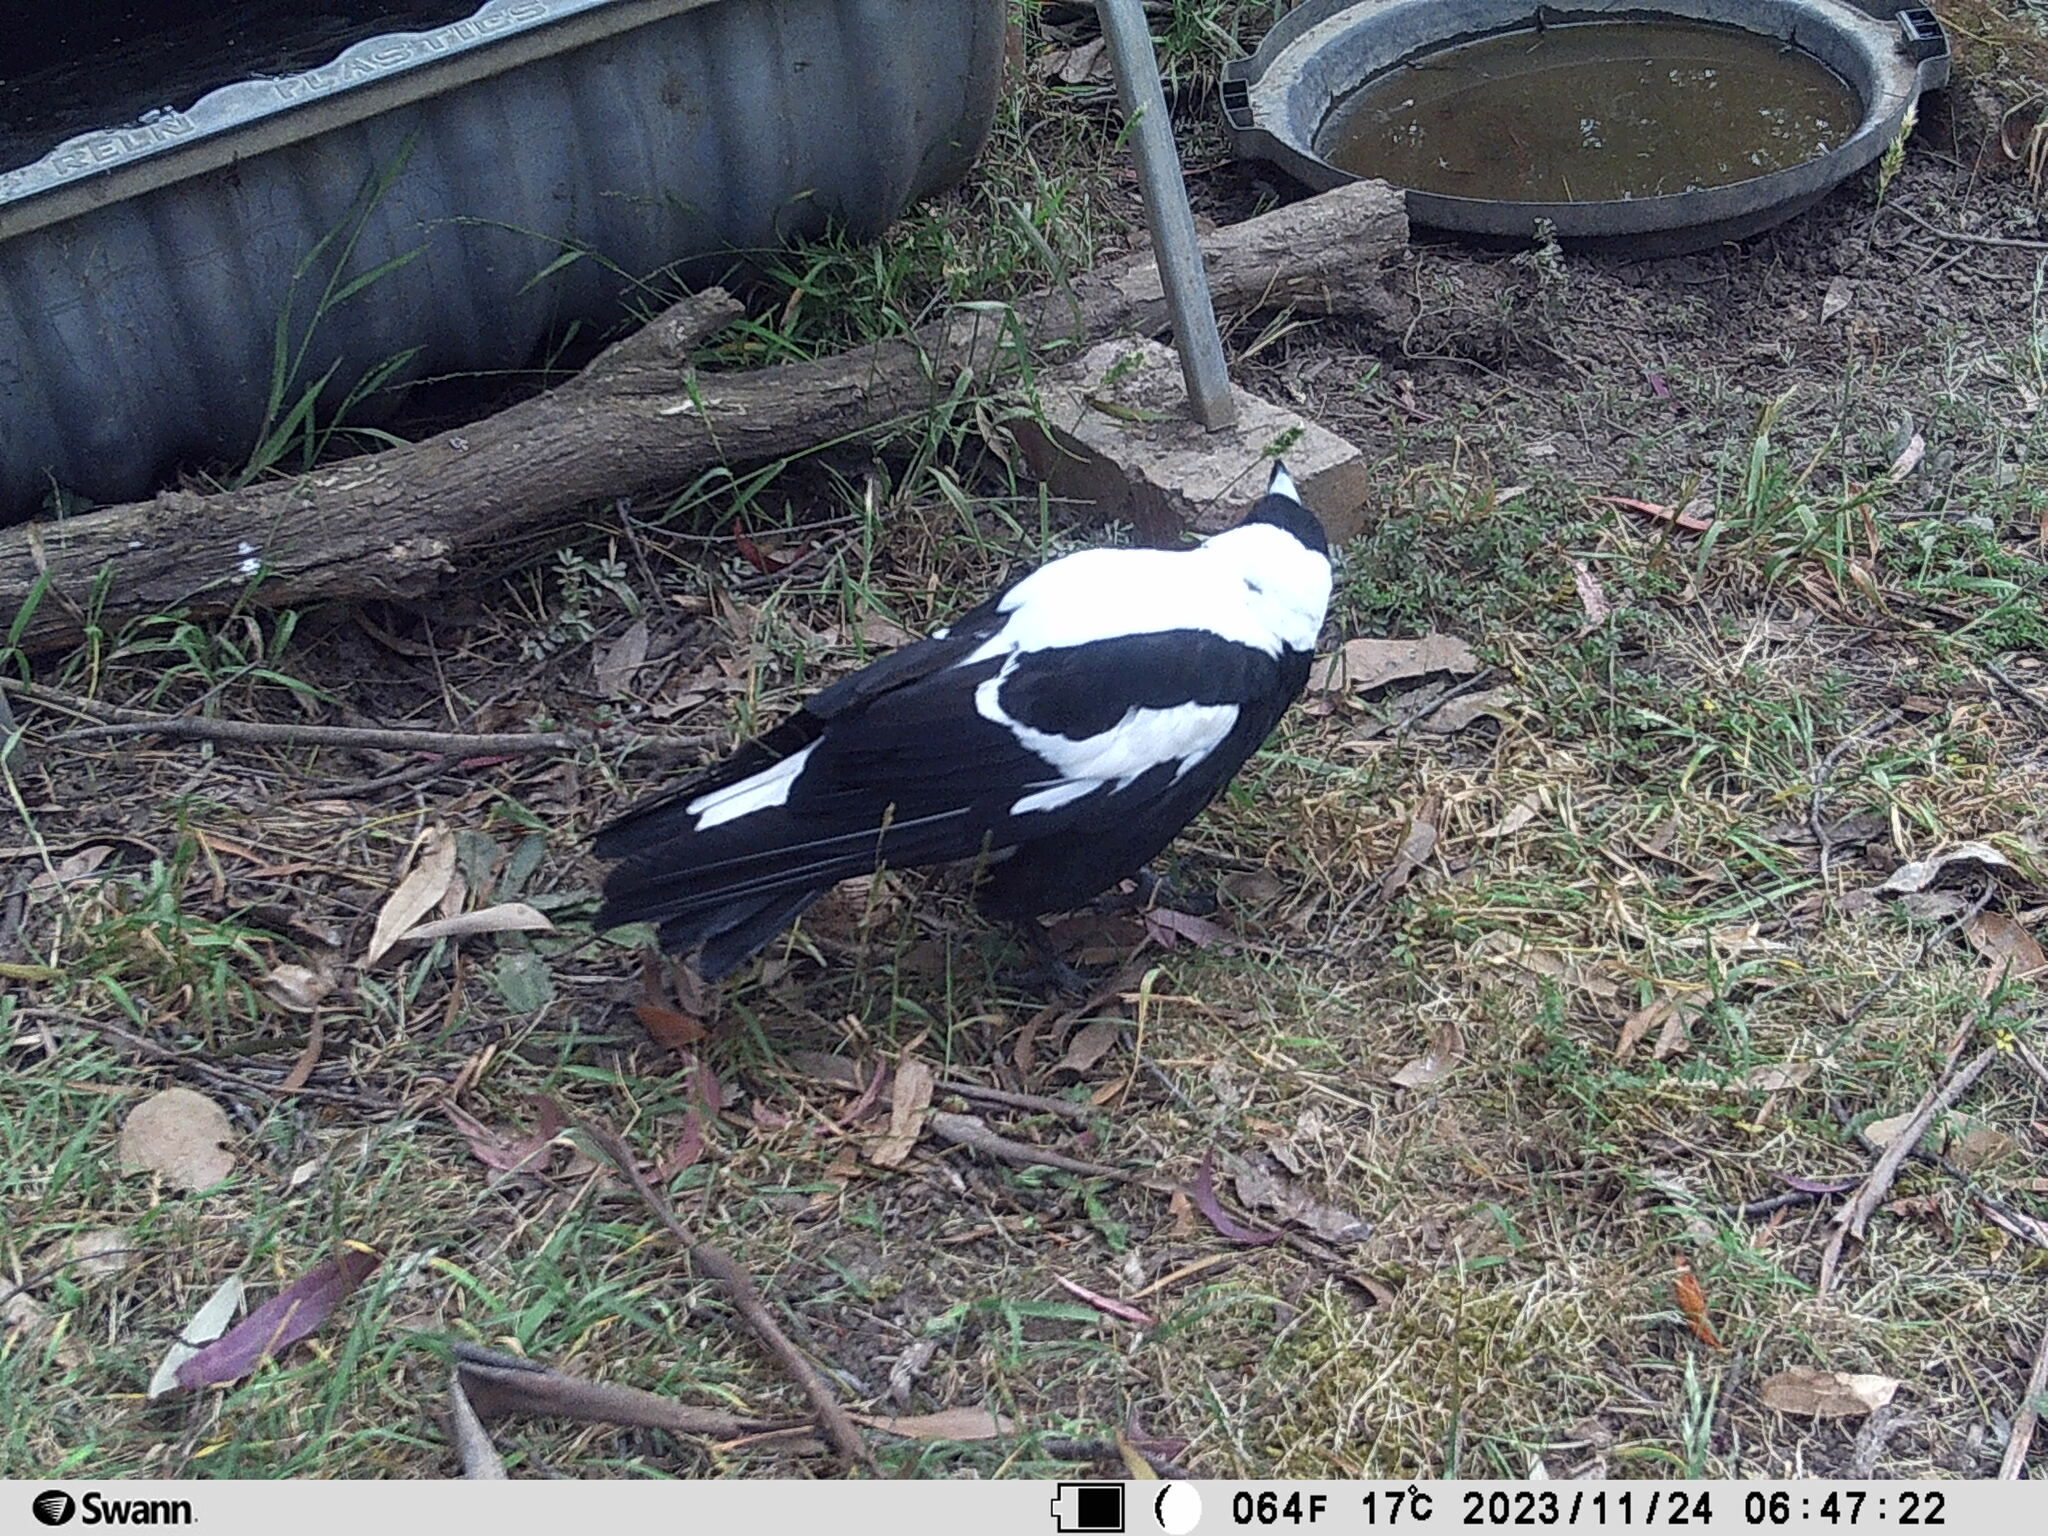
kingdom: Animalia
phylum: Chordata
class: Aves
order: Passeriformes
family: Cracticidae
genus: Gymnorhina
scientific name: Gymnorhina tibicen
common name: Australian magpie
